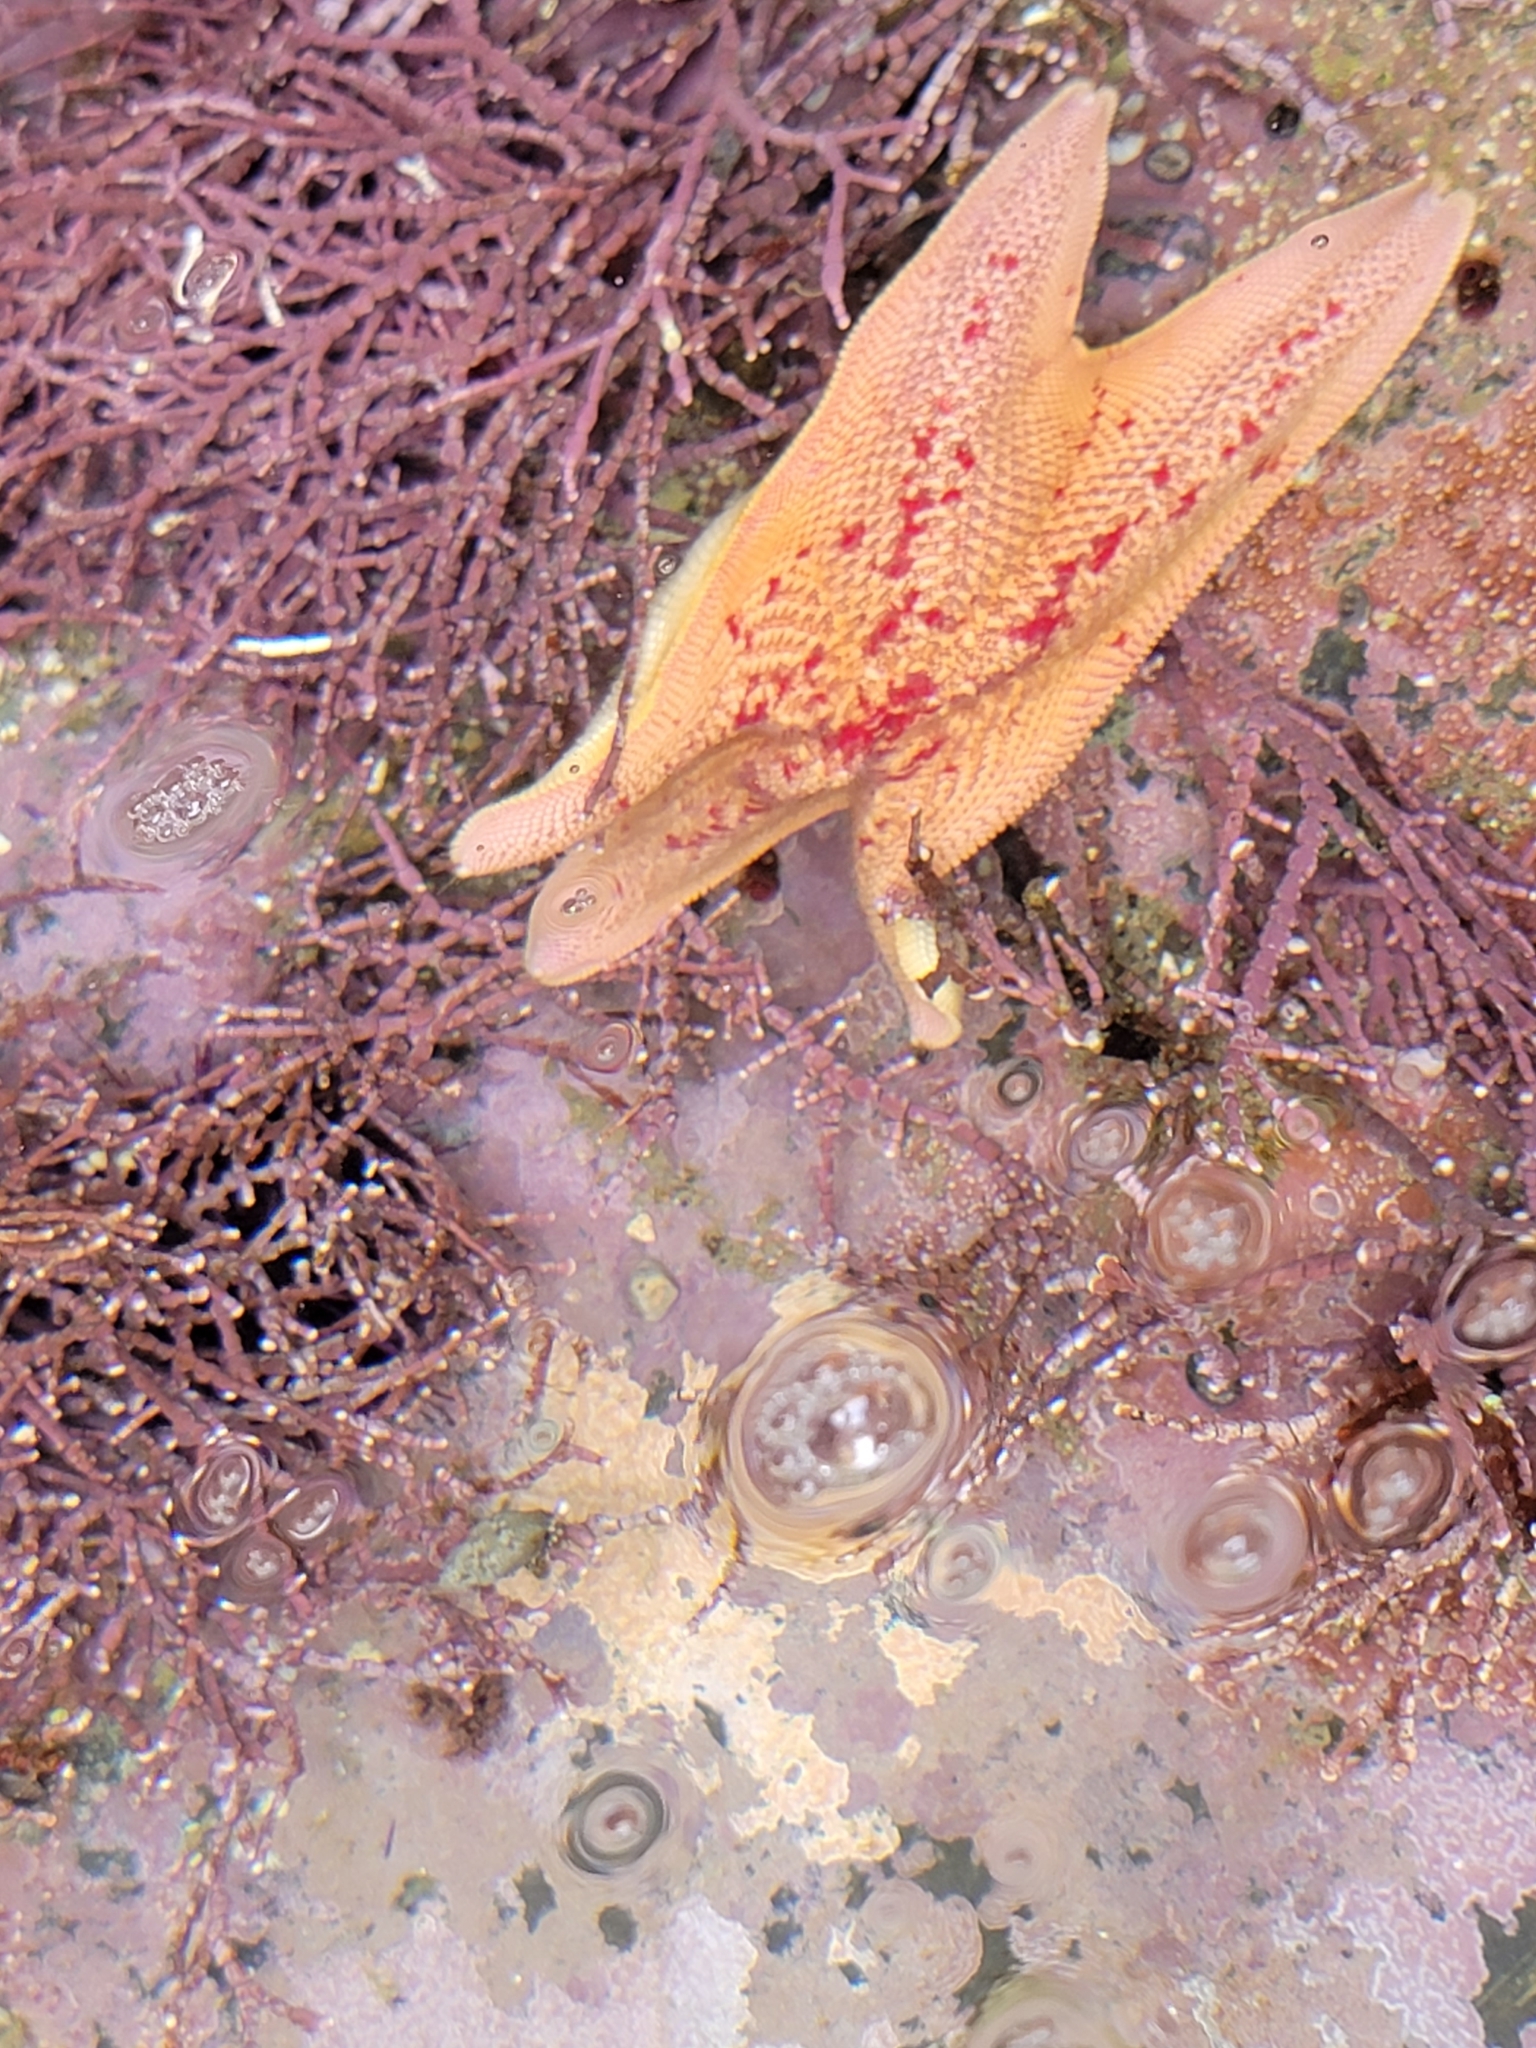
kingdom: Animalia
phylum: Echinodermata
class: Asteroidea
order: Valvatida
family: Asterinidae
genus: Patiria
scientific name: Patiria miniata
